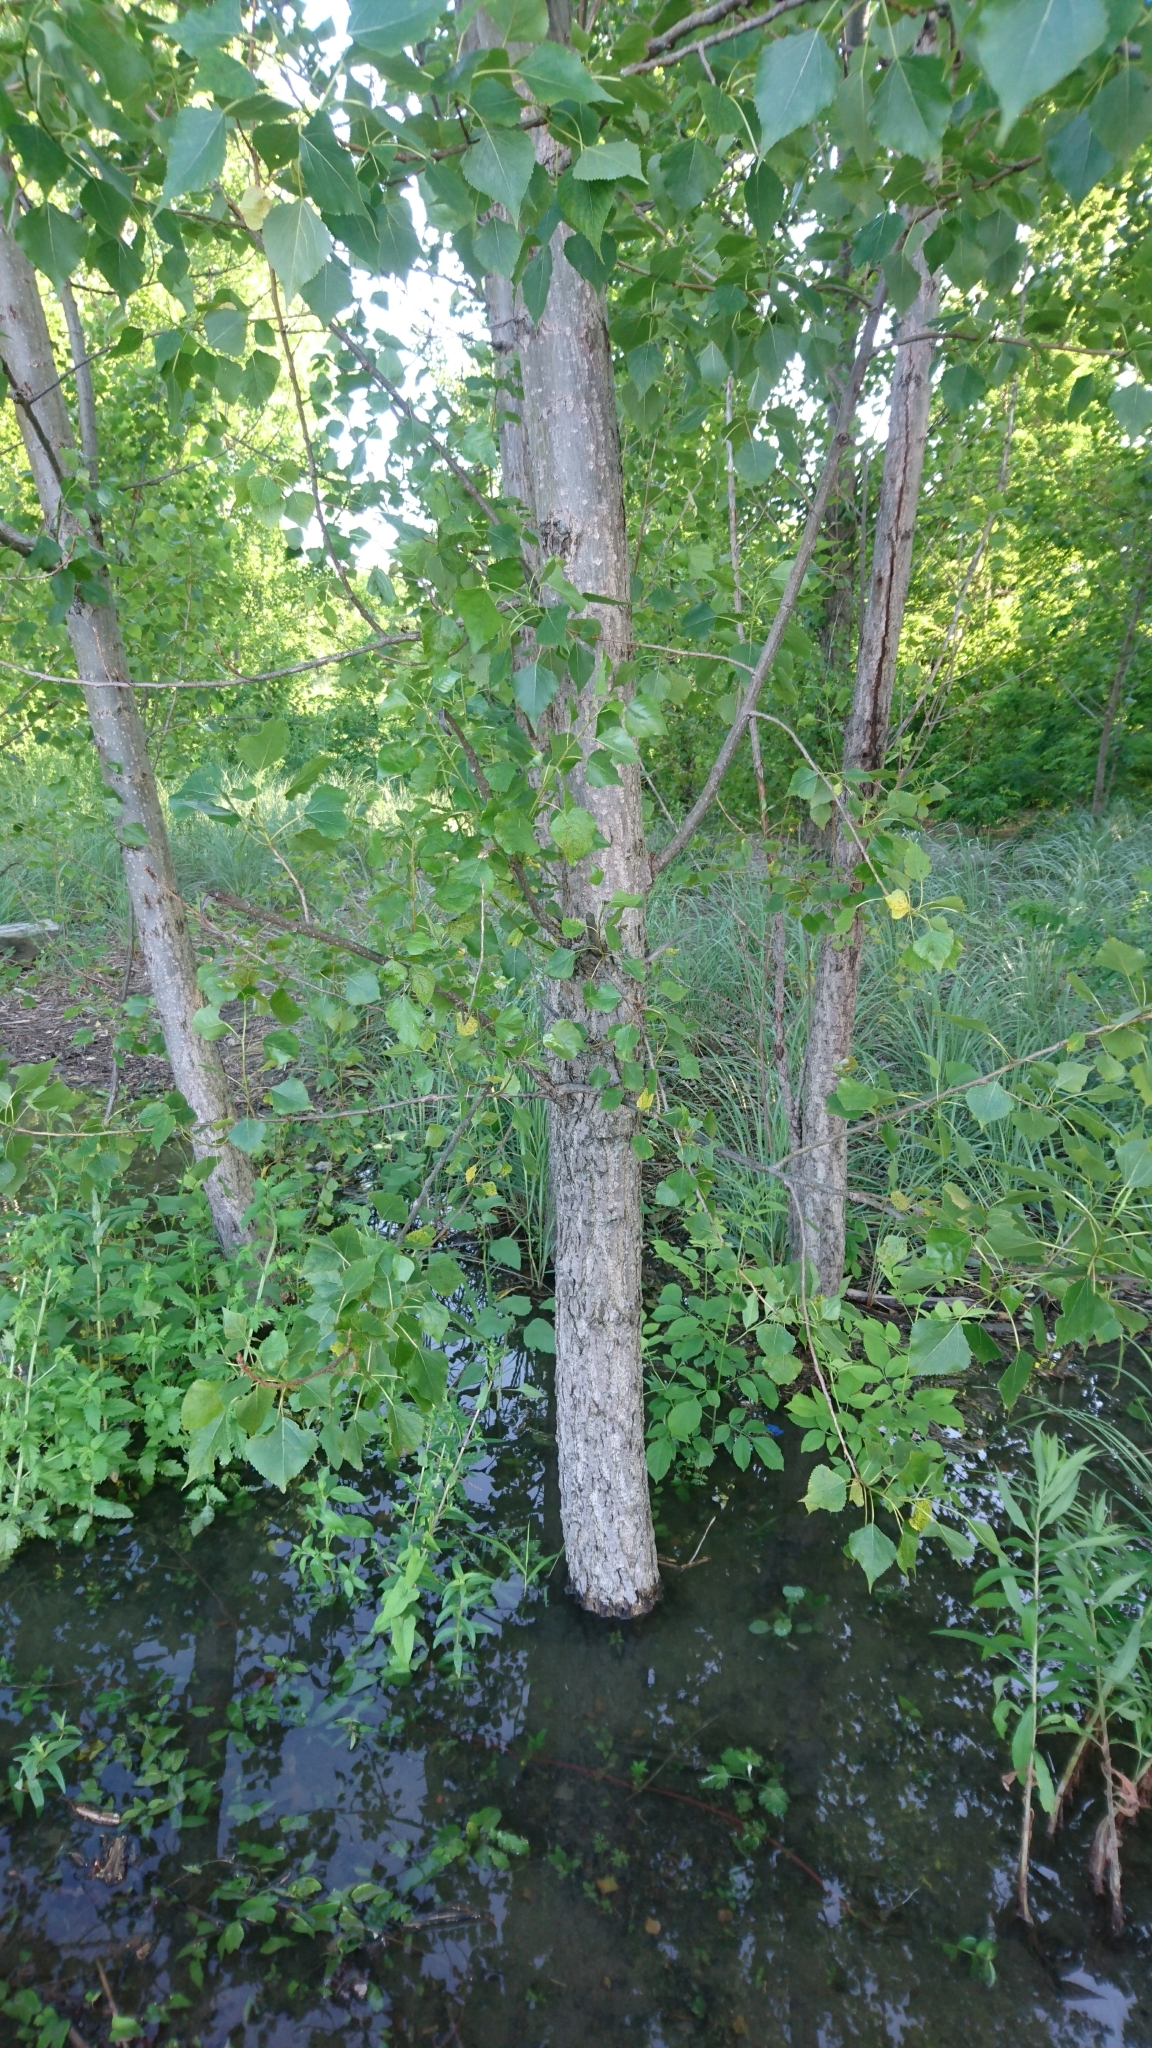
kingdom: Plantae
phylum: Tracheophyta
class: Magnoliopsida
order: Malpighiales
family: Salicaceae
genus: Populus
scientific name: Populus deltoides
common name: Eastern cottonwood
